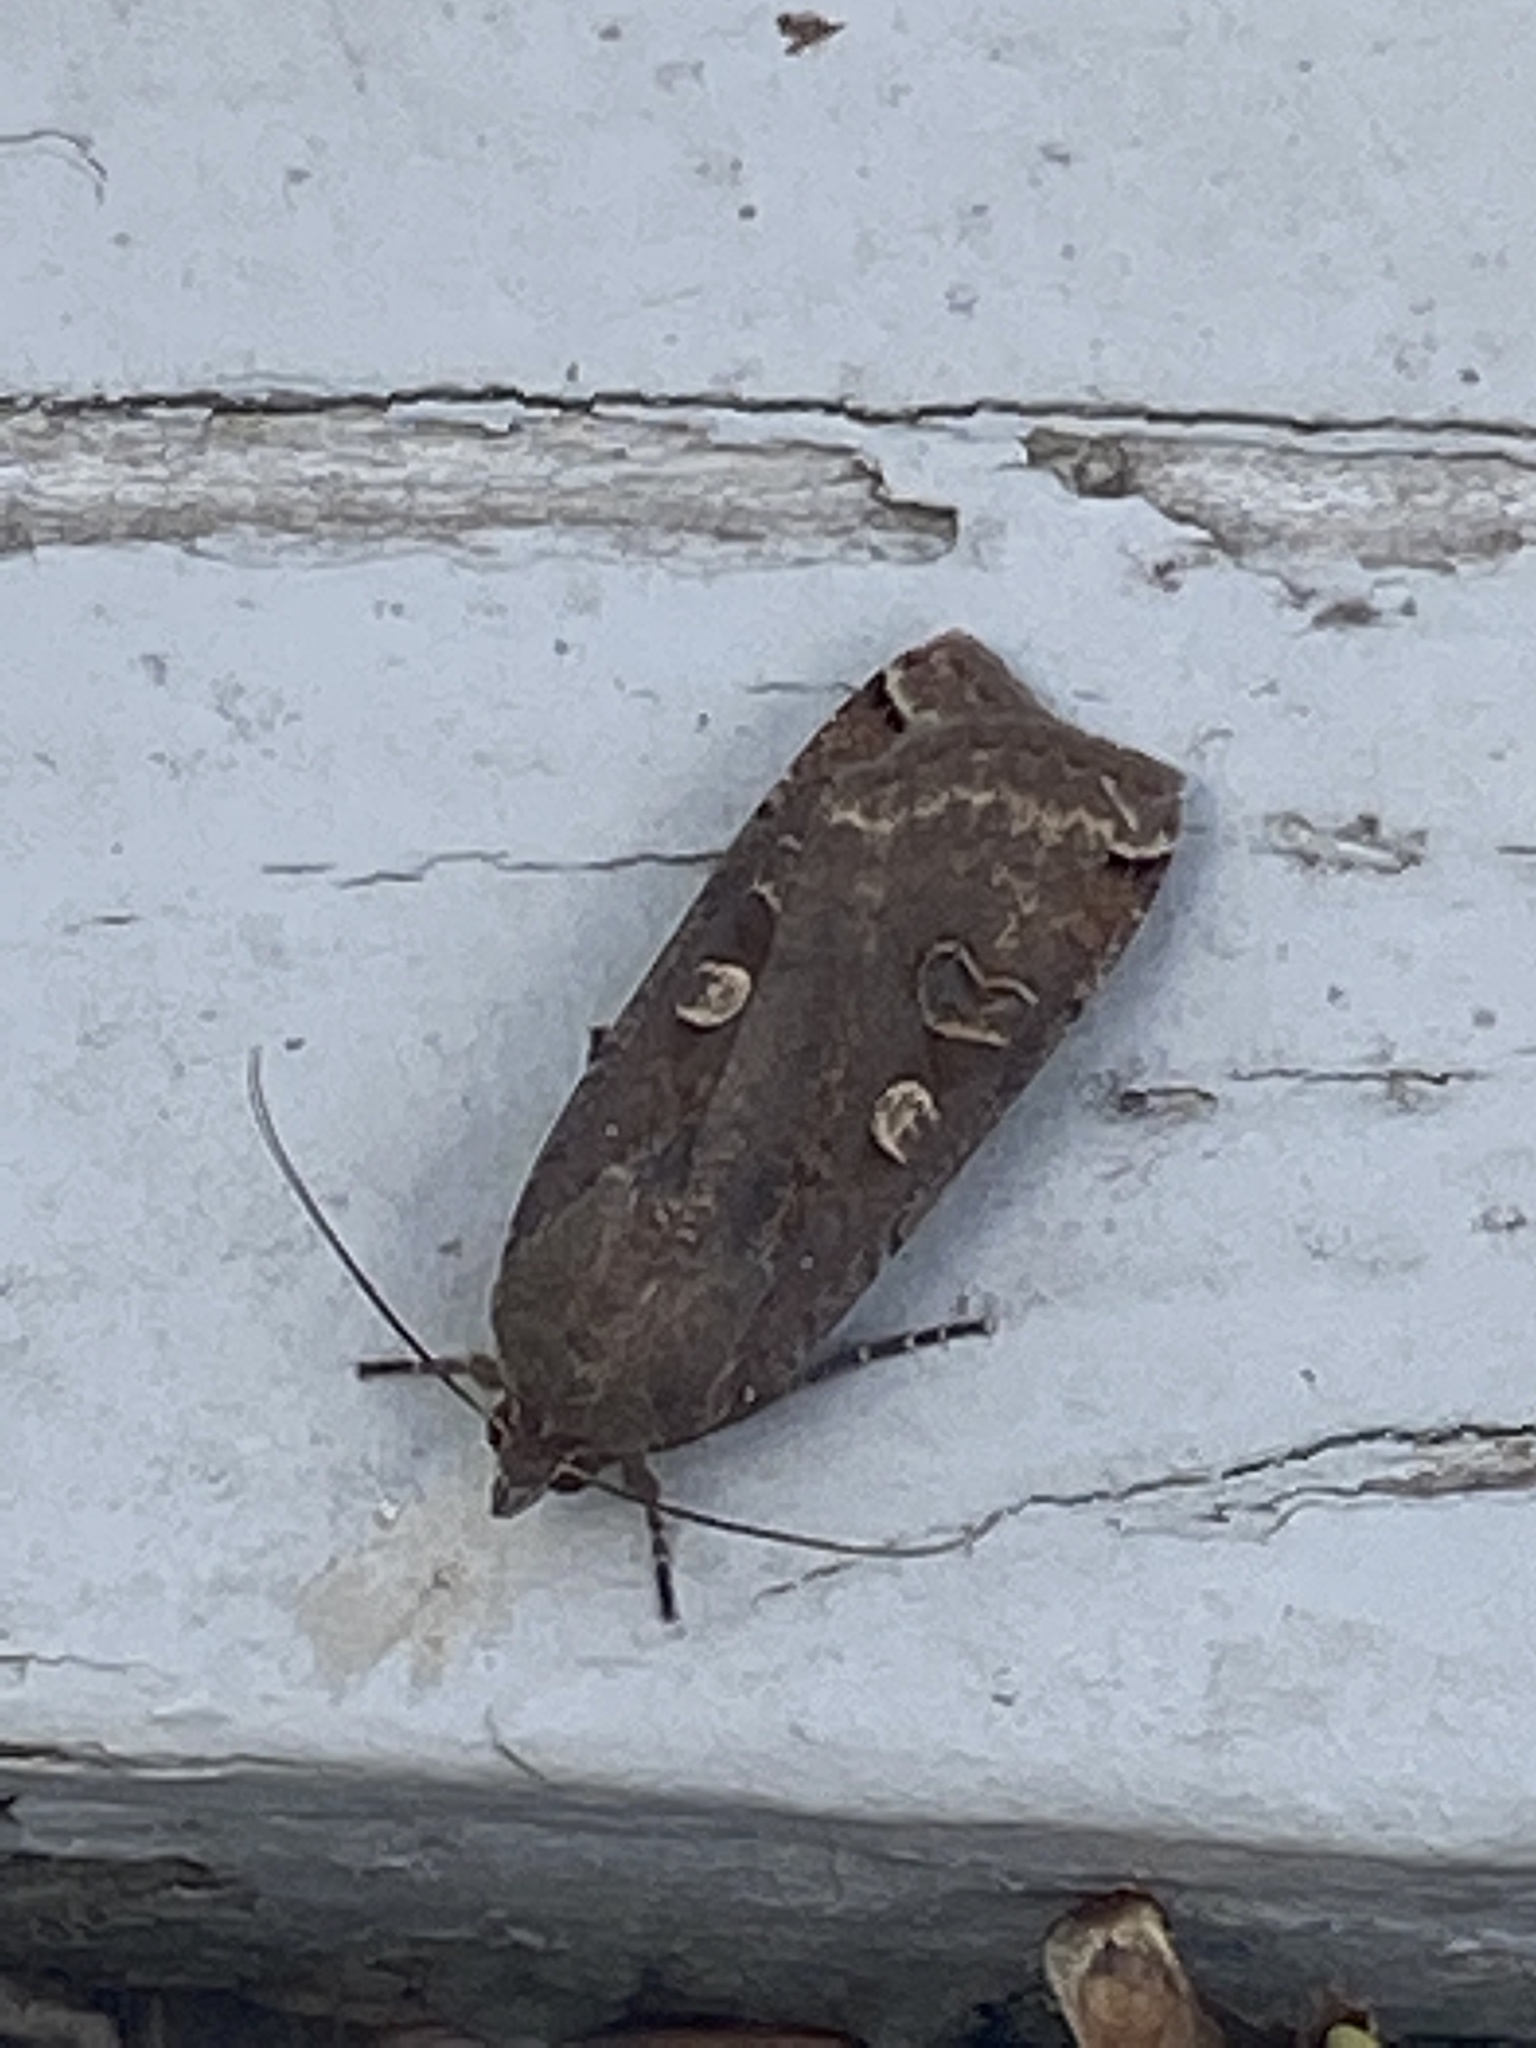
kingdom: Animalia
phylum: Arthropoda
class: Insecta
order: Lepidoptera
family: Noctuidae
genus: Noctua
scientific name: Noctua pronuba
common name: Large yellow underwing
